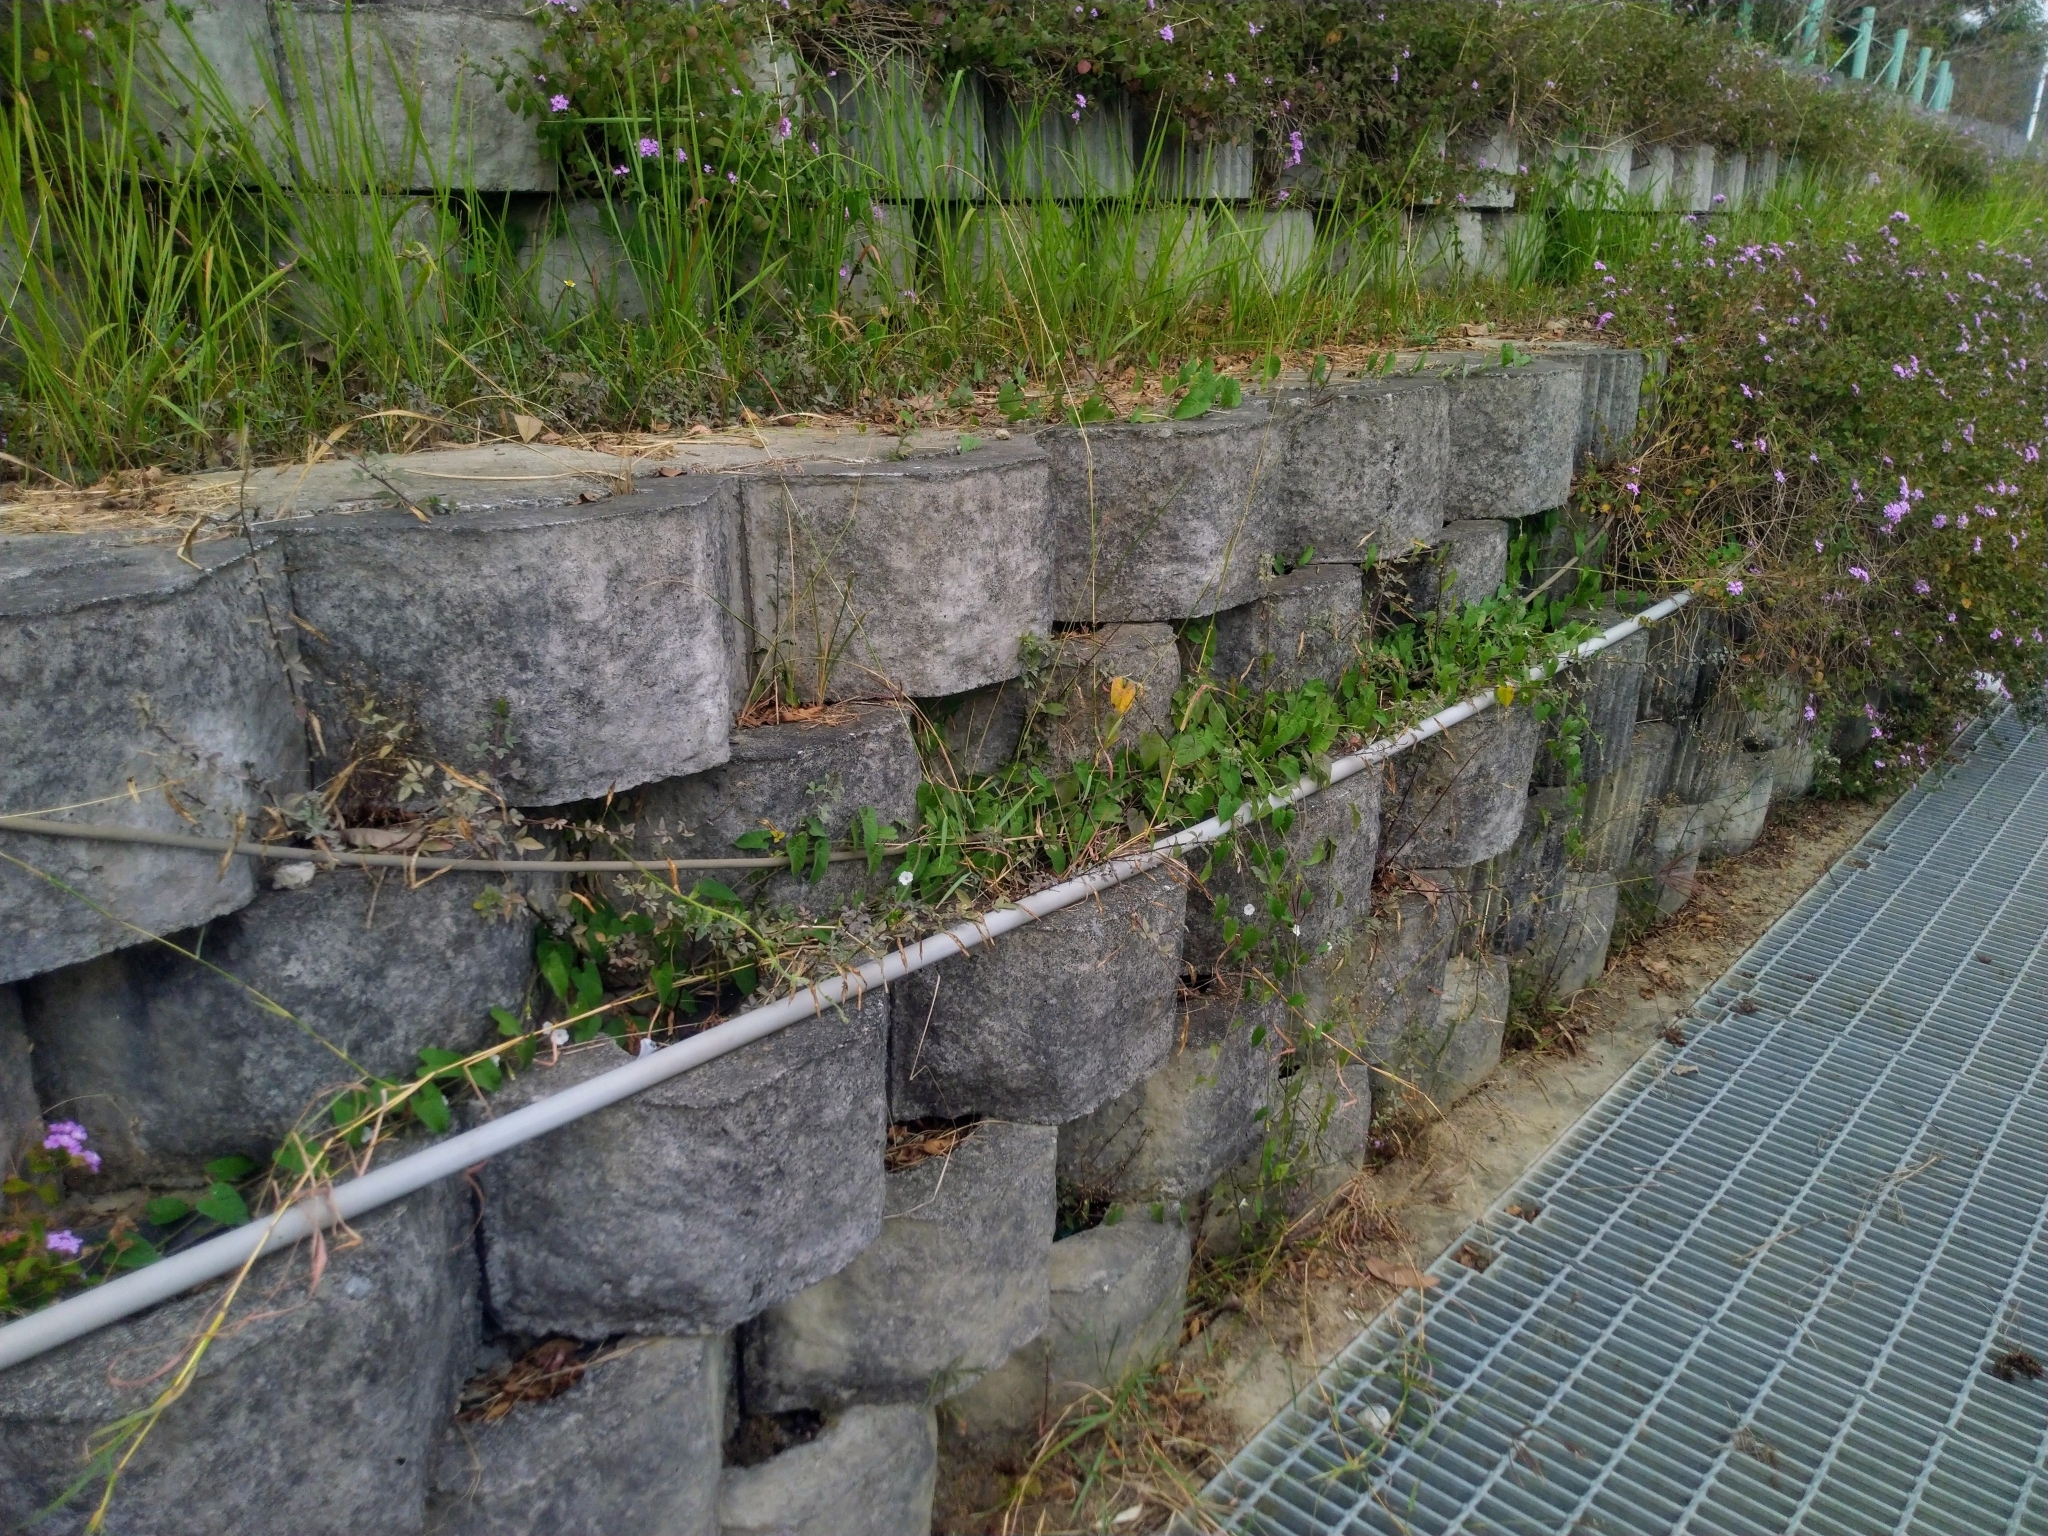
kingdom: Plantae
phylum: Tracheophyta
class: Magnoliopsida
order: Solanales
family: Convolvulaceae
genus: Ipomoea
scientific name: Ipomoea biflora
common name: Bellvine
